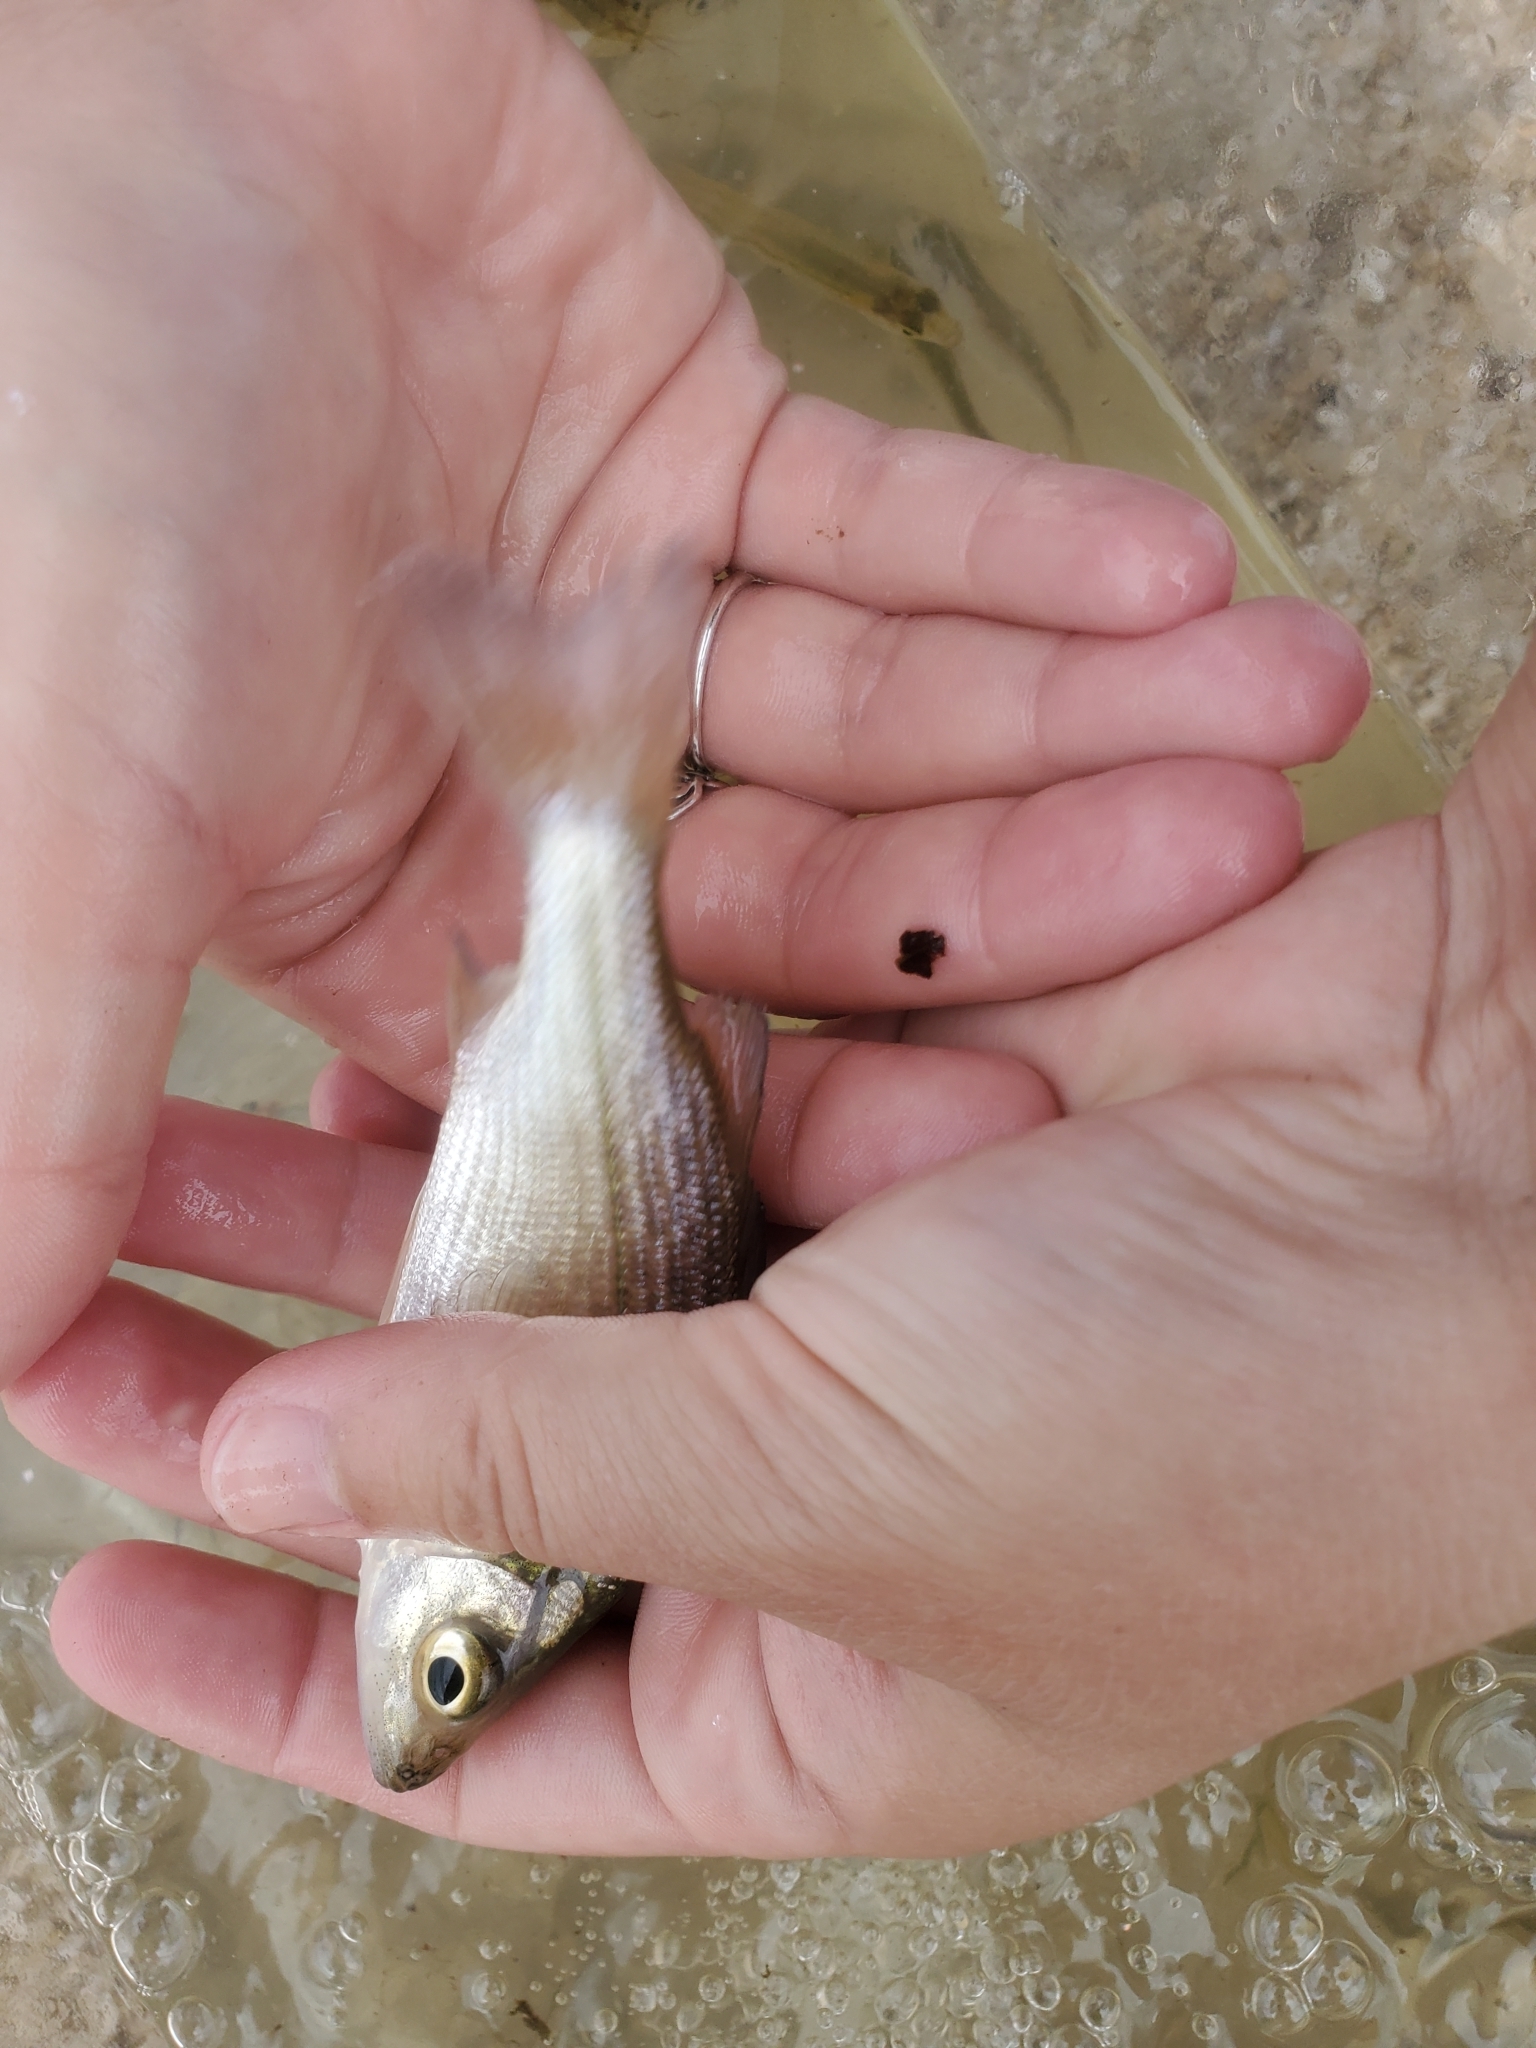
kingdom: Animalia
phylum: Chordata
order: Perciformes
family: Moronidae
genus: Morone
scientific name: Morone americana
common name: White perch
